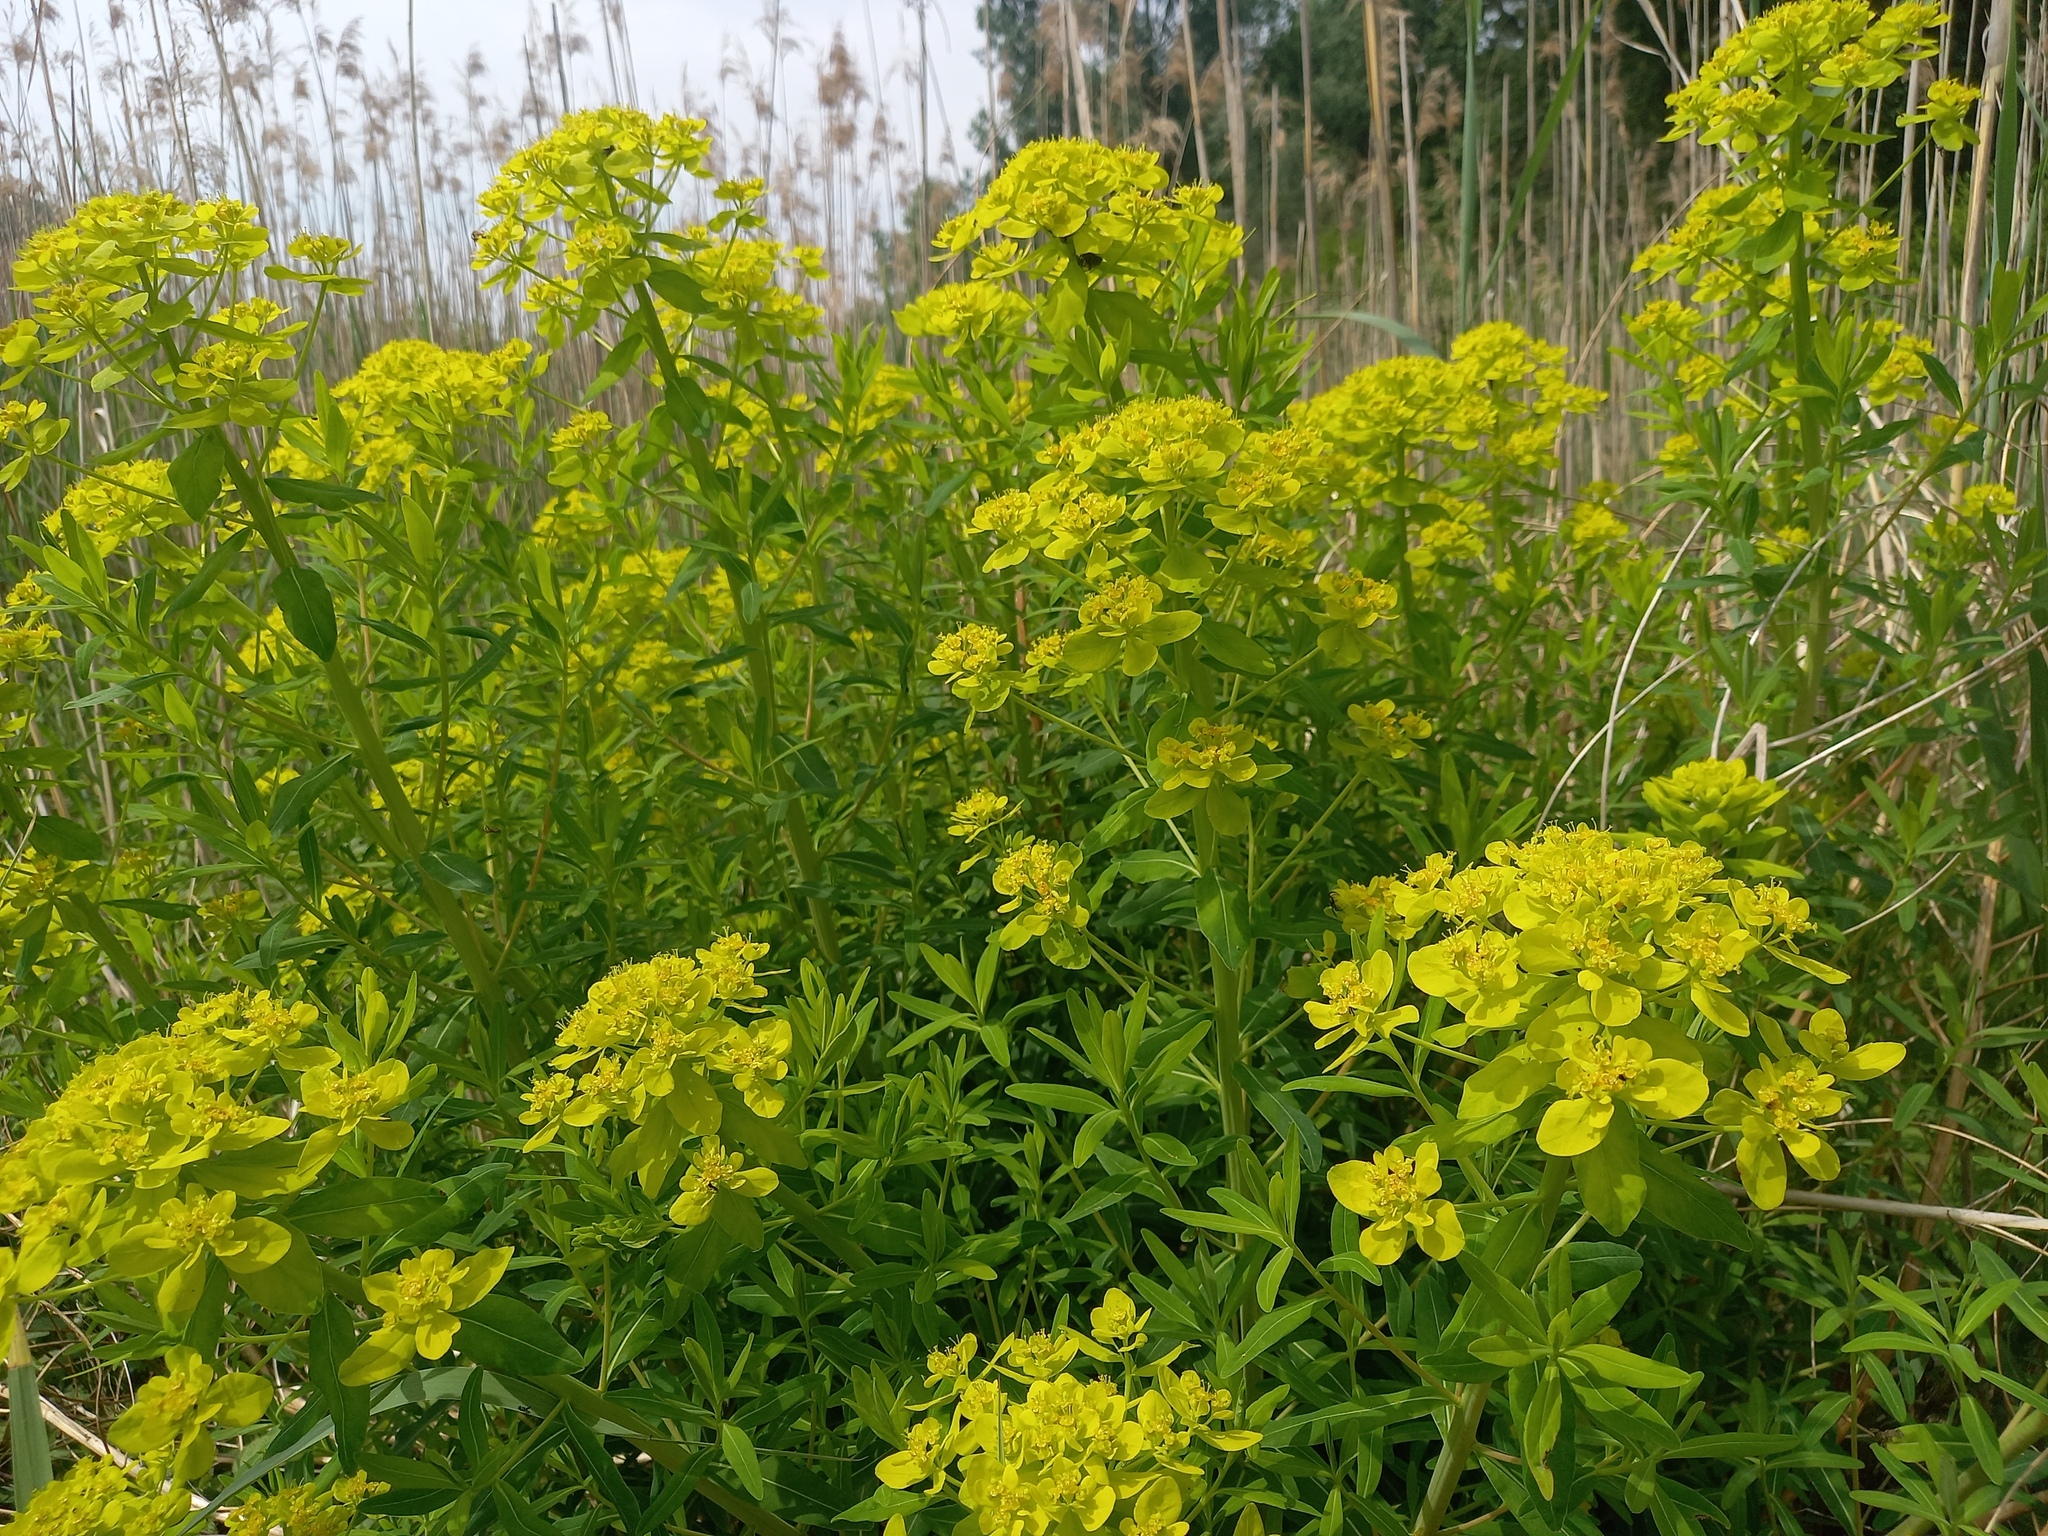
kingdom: Plantae
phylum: Tracheophyta
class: Magnoliopsida
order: Malpighiales
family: Euphorbiaceae
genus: Euphorbia
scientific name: Euphorbia palustris
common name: Marsh spurge
